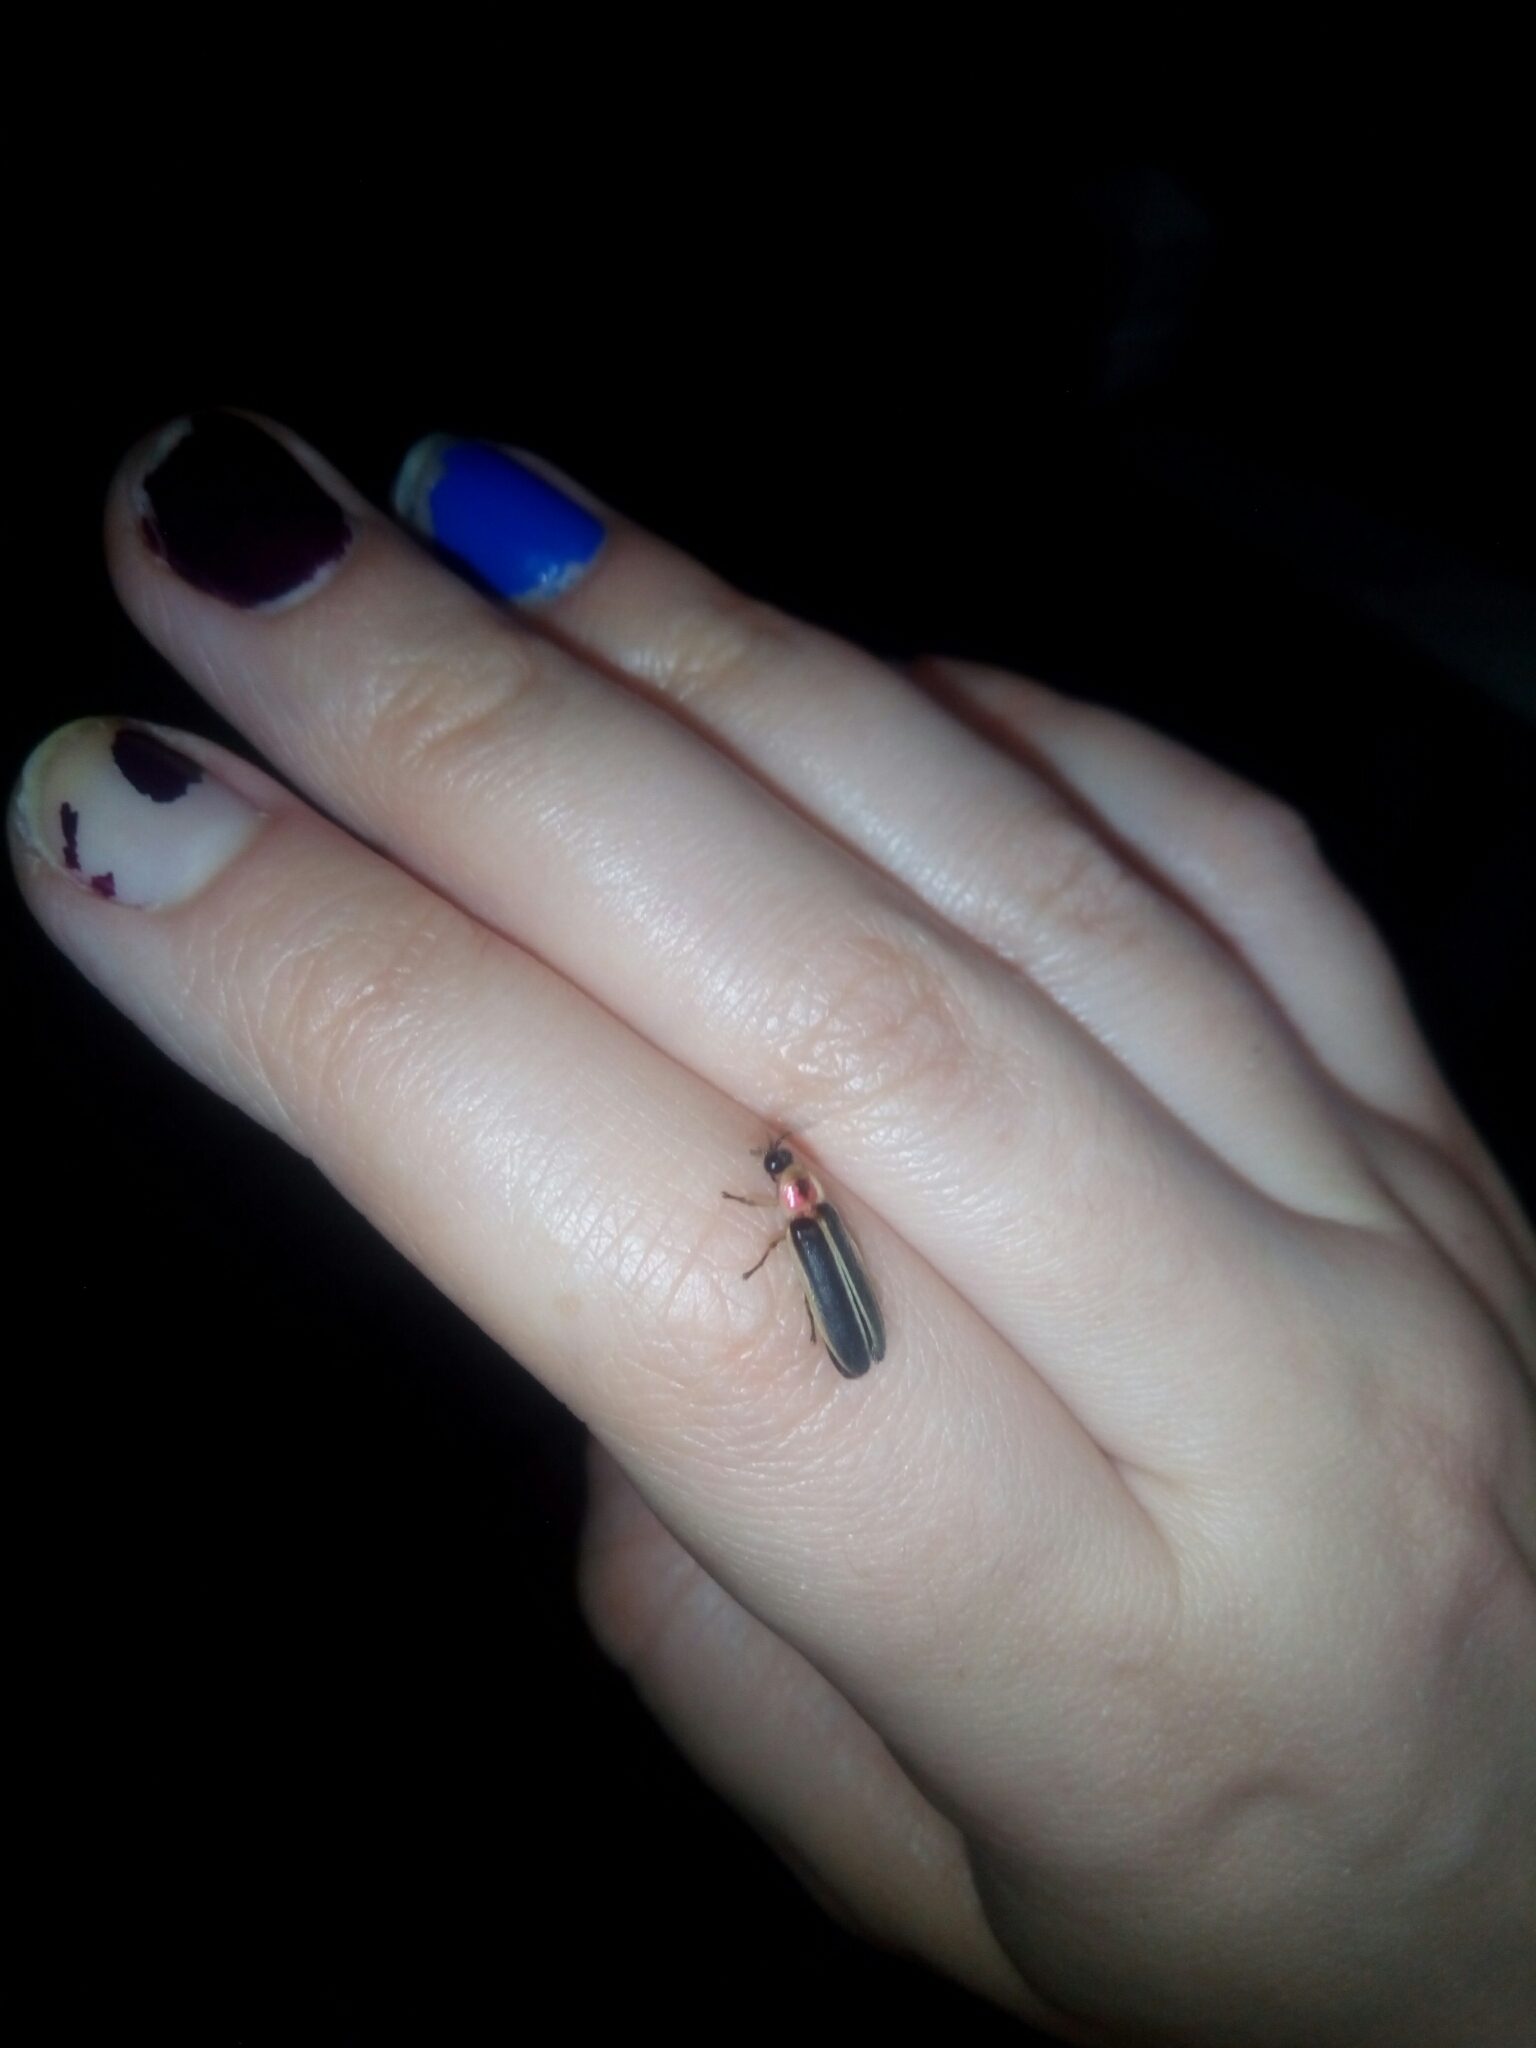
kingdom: Animalia
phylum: Arthropoda
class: Insecta
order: Coleoptera
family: Lampyridae
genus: Photinus
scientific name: Photinus pyralis
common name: Big dipper firefly
